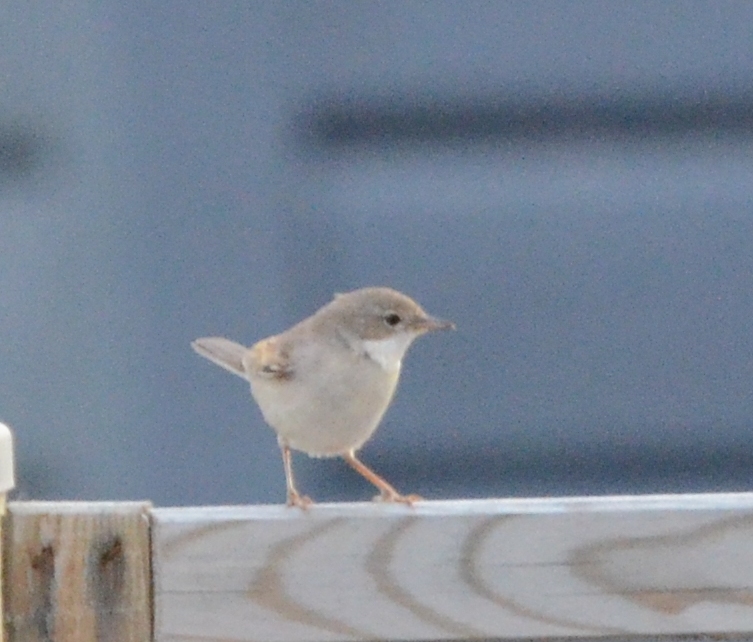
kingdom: Animalia
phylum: Chordata
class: Aves
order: Passeriformes
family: Sylviidae
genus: Sylvia
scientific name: Sylvia communis
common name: Common whitethroat
